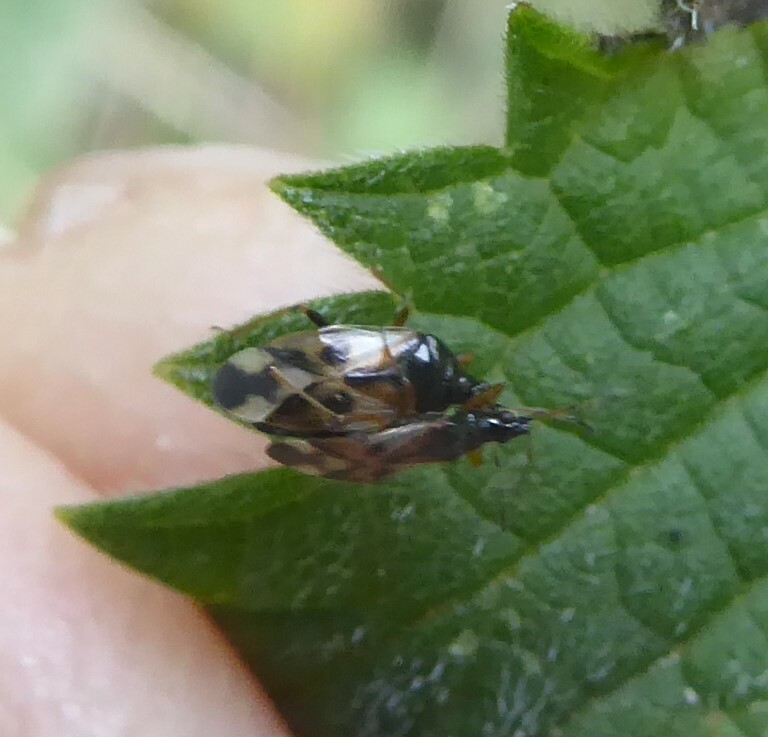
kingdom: Animalia
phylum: Arthropoda
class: Insecta
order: Hemiptera
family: Anthocoridae
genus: Anthocoris
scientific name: Anthocoris nemorum
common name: Minute pirate bug
